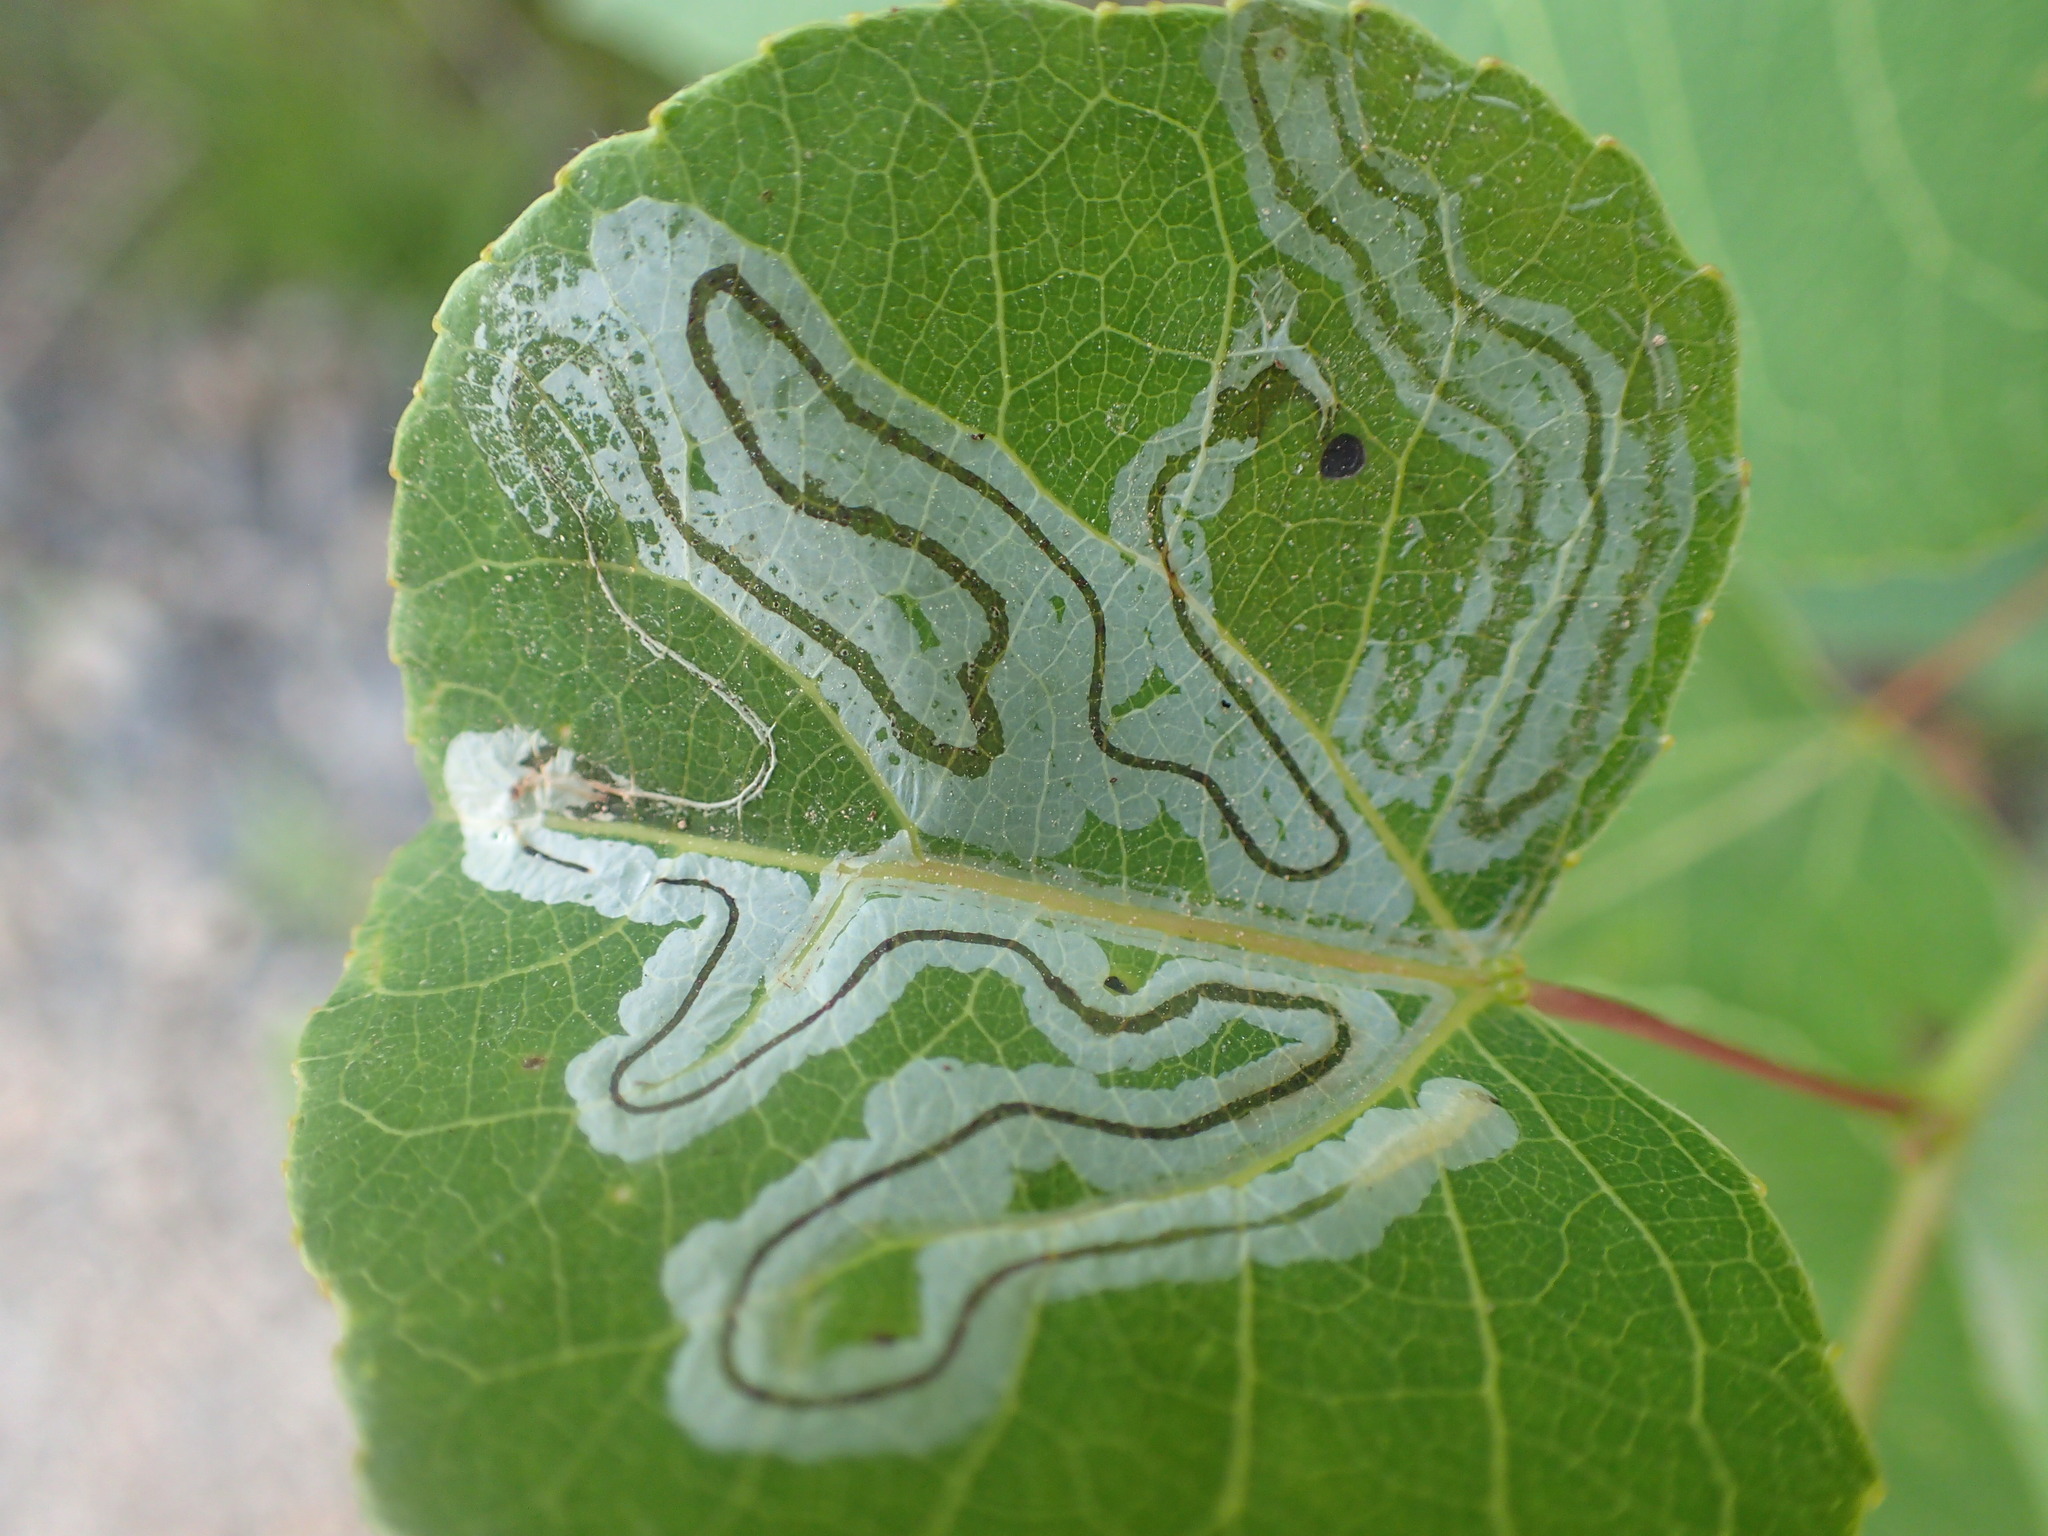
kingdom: Animalia
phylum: Arthropoda
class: Insecta
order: Lepidoptera
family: Gracillariidae
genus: Phyllocnistis
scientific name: Phyllocnistis populiella
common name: Aspen serpentine leafminer moth
